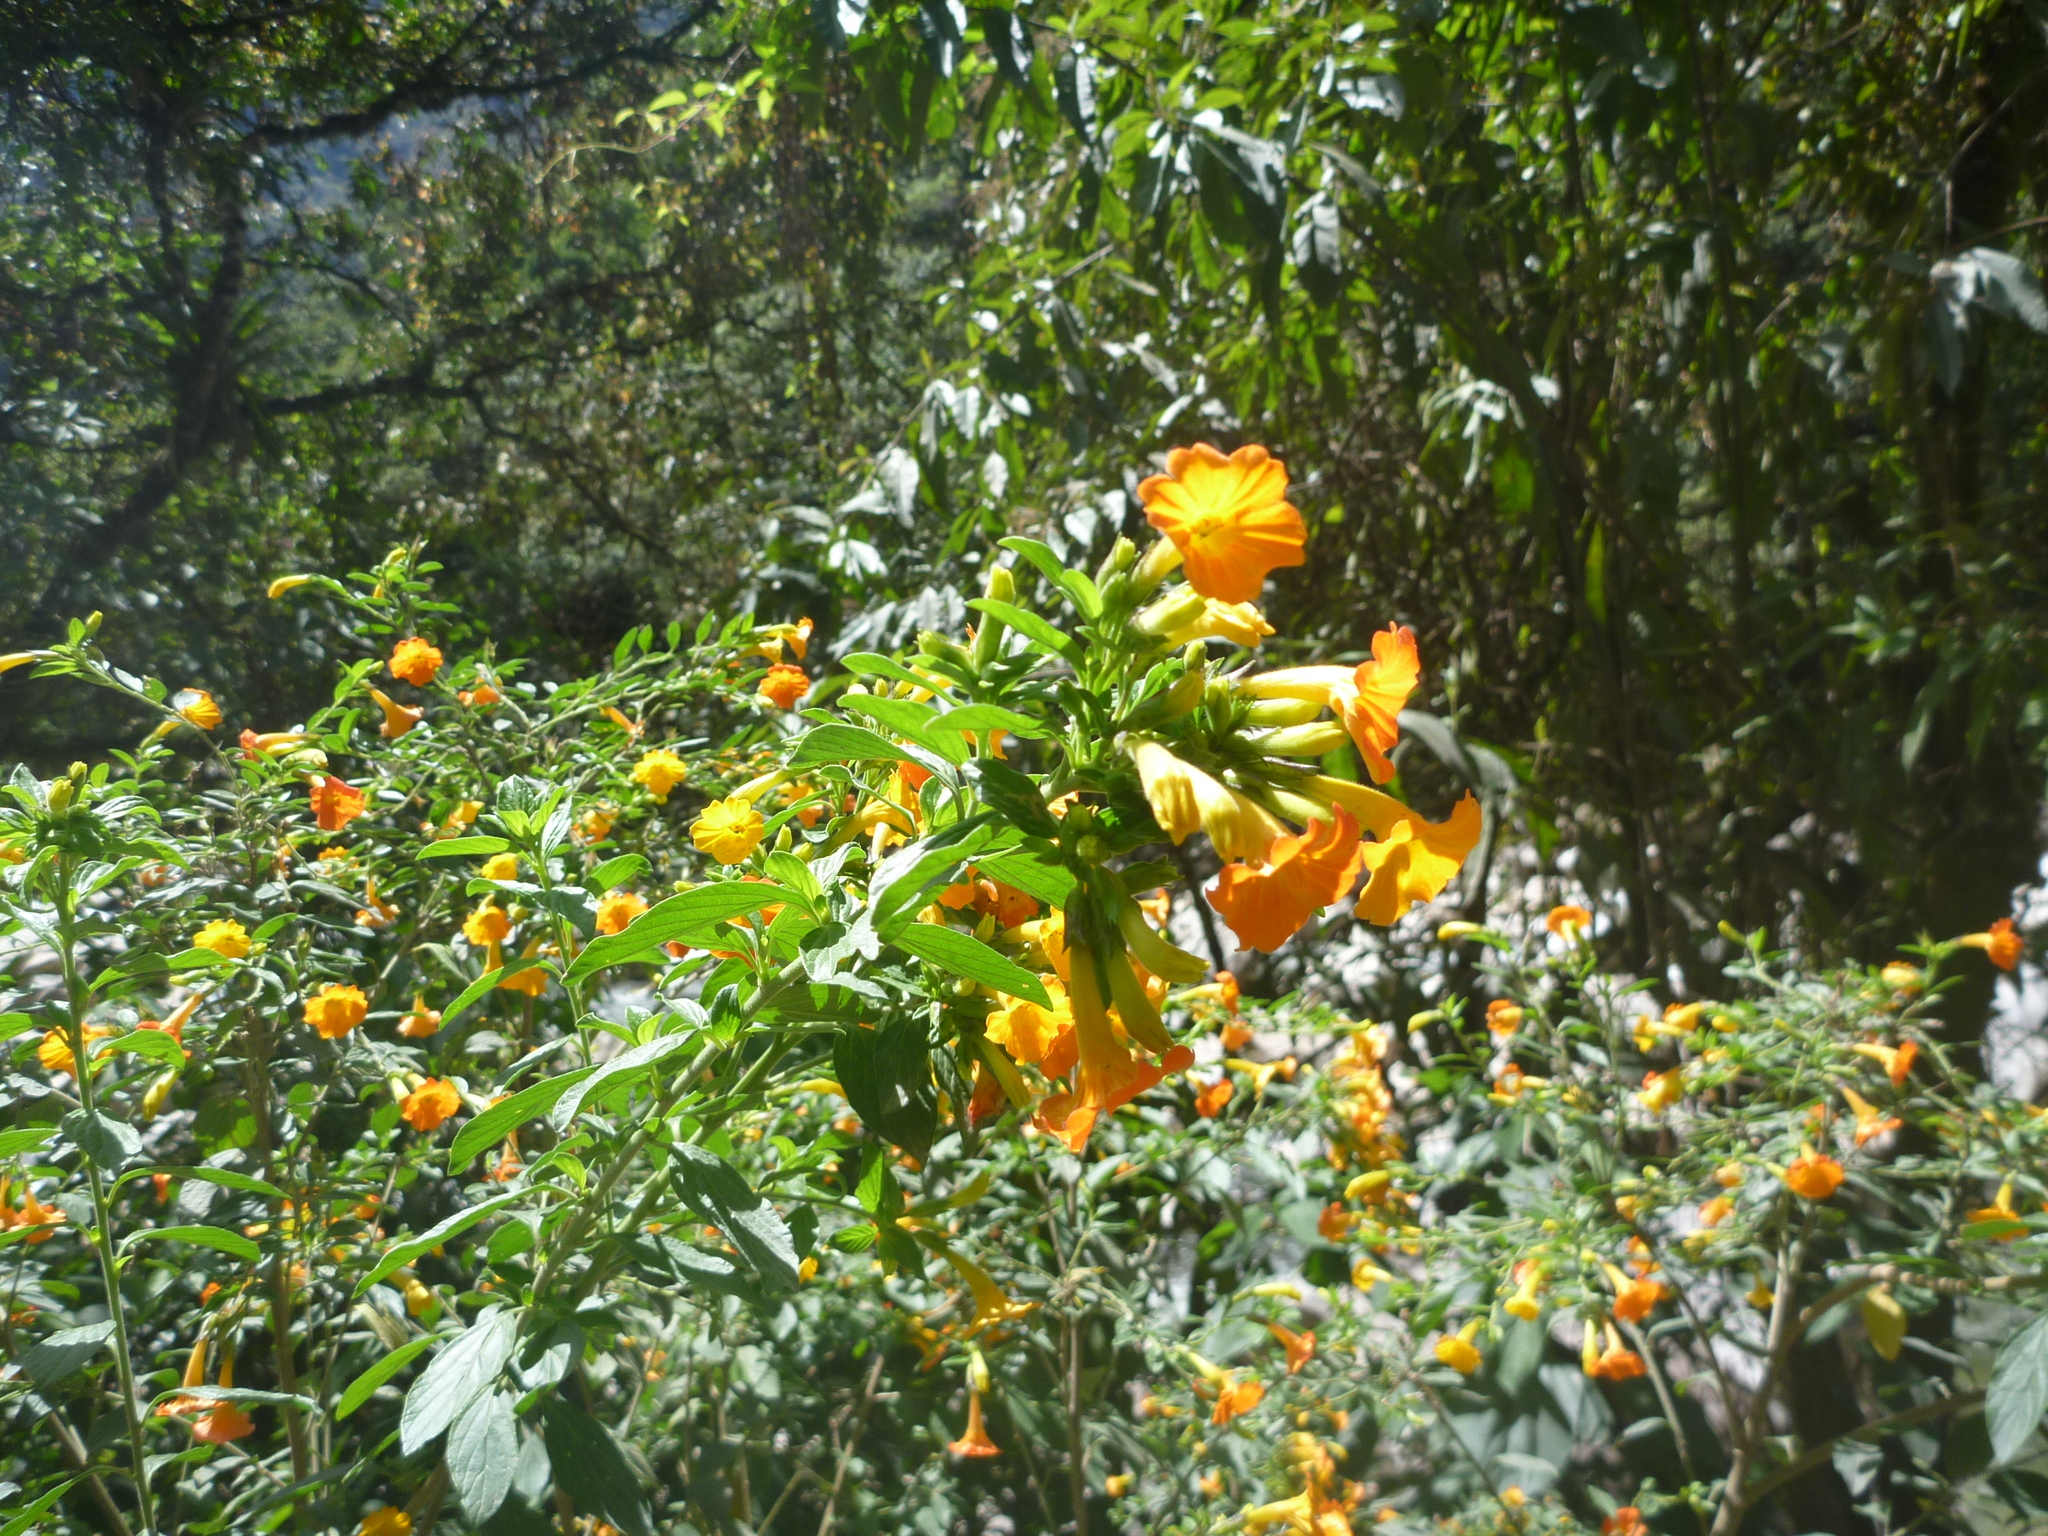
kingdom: Plantae
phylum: Tracheophyta
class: Magnoliopsida
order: Solanales
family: Solanaceae
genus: Streptosolen
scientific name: Streptosolen jamesonii
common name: Marmalade bush
